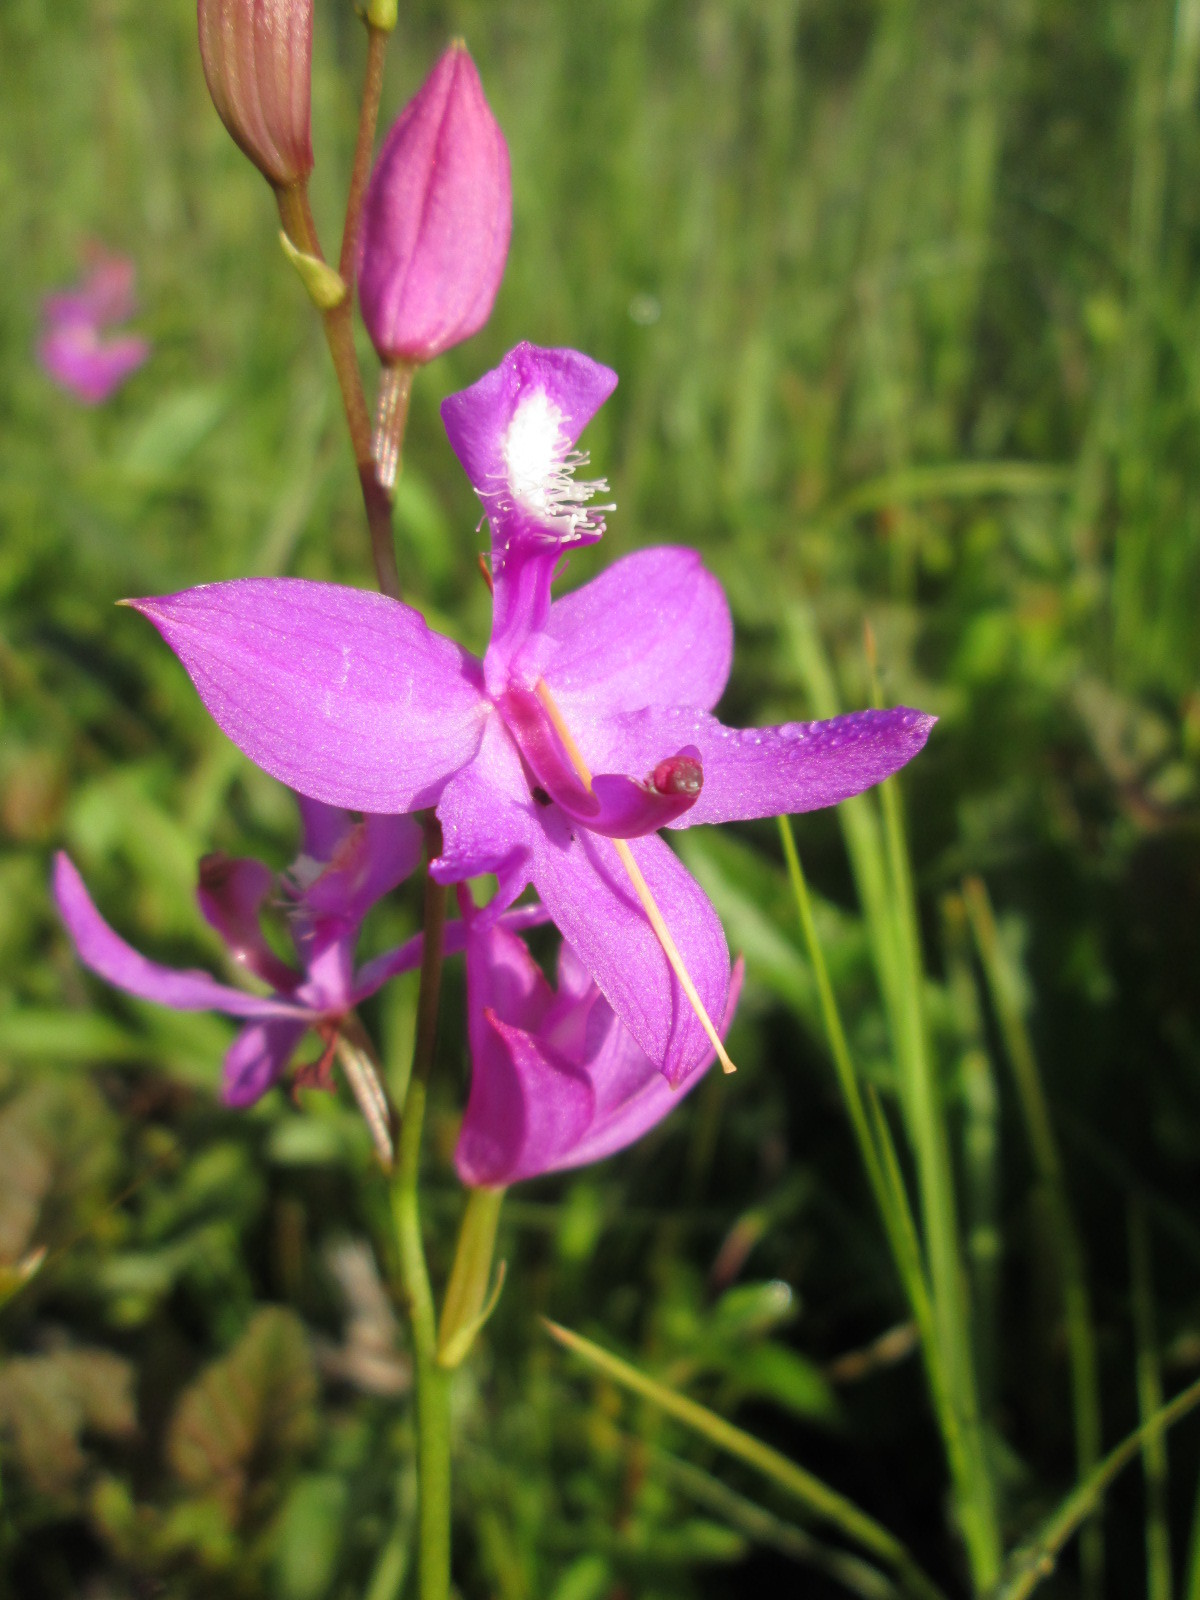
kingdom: Plantae
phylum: Tracheophyta
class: Liliopsida
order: Asparagales
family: Orchidaceae
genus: Calopogon
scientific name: Calopogon tuberosus
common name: Grass-pink
